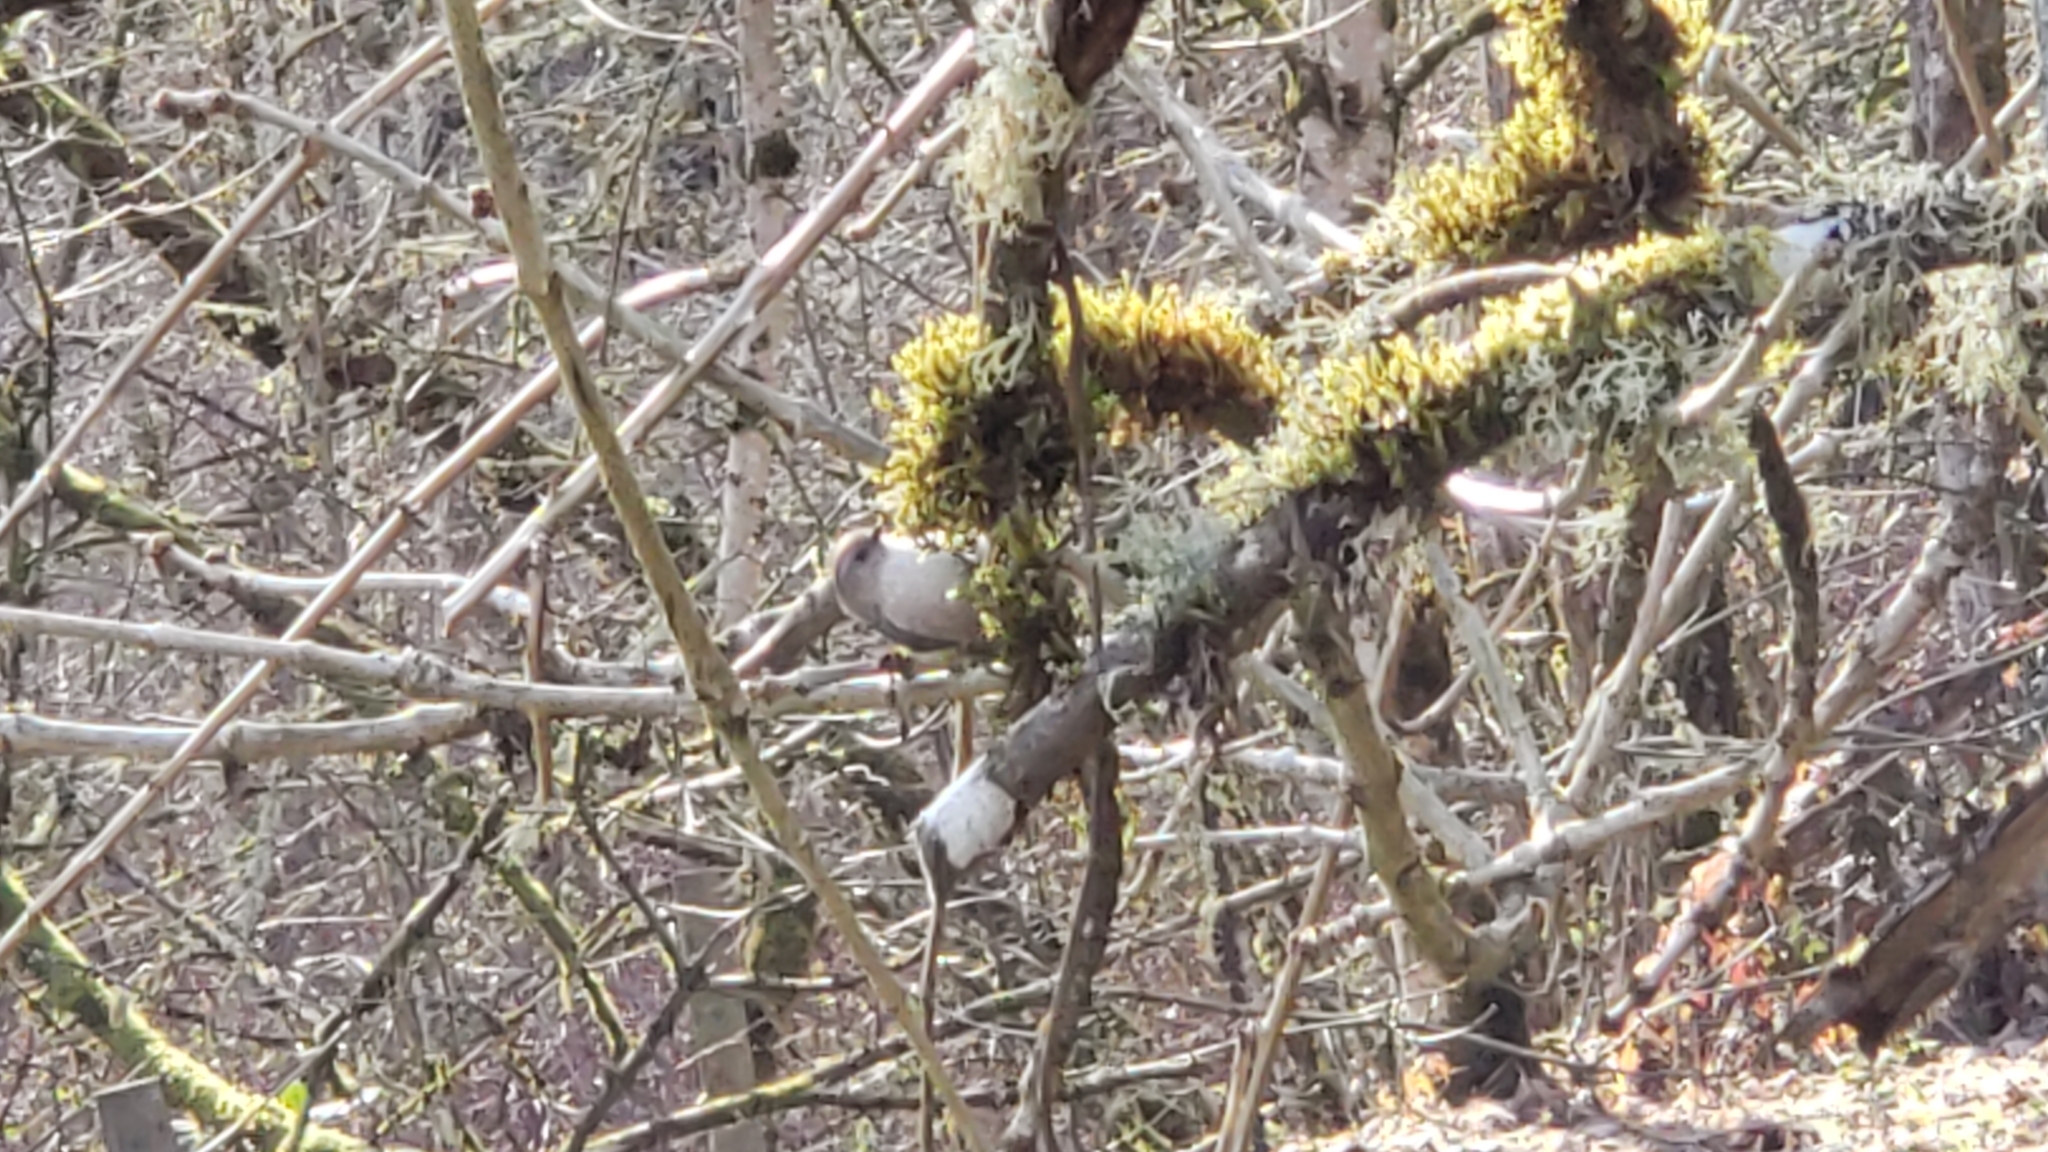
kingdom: Animalia
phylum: Chordata
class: Aves
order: Passeriformes
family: Aegithalidae
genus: Psaltriparus
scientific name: Psaltriparus minimus
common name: American bushtit
